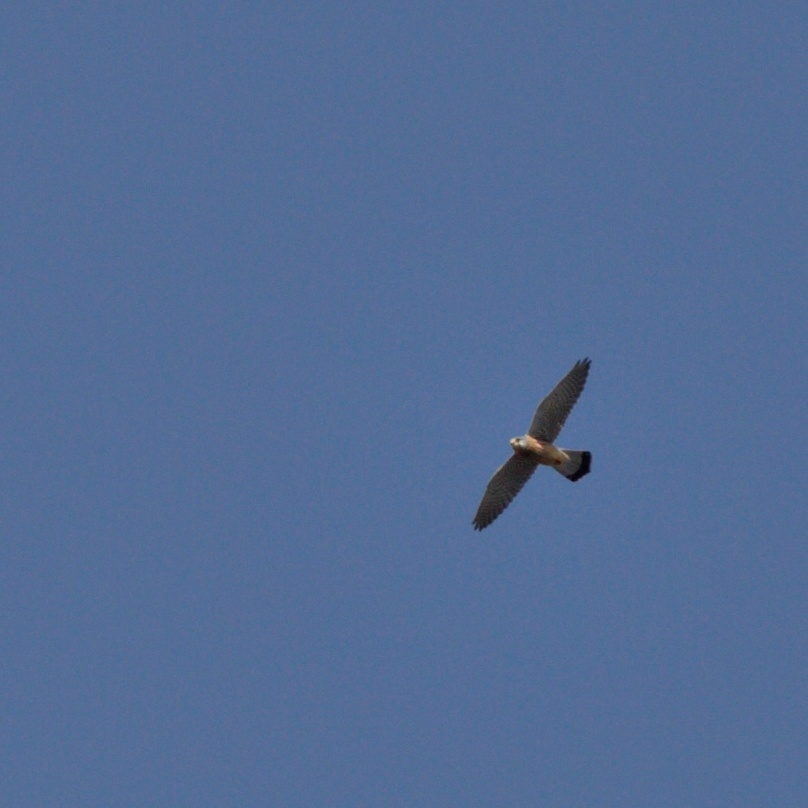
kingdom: Animalia
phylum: Chordata
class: Aves
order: Falconiformes
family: Falconidae
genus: Falco
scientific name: Falco tinnunculus
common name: Common kestrel
